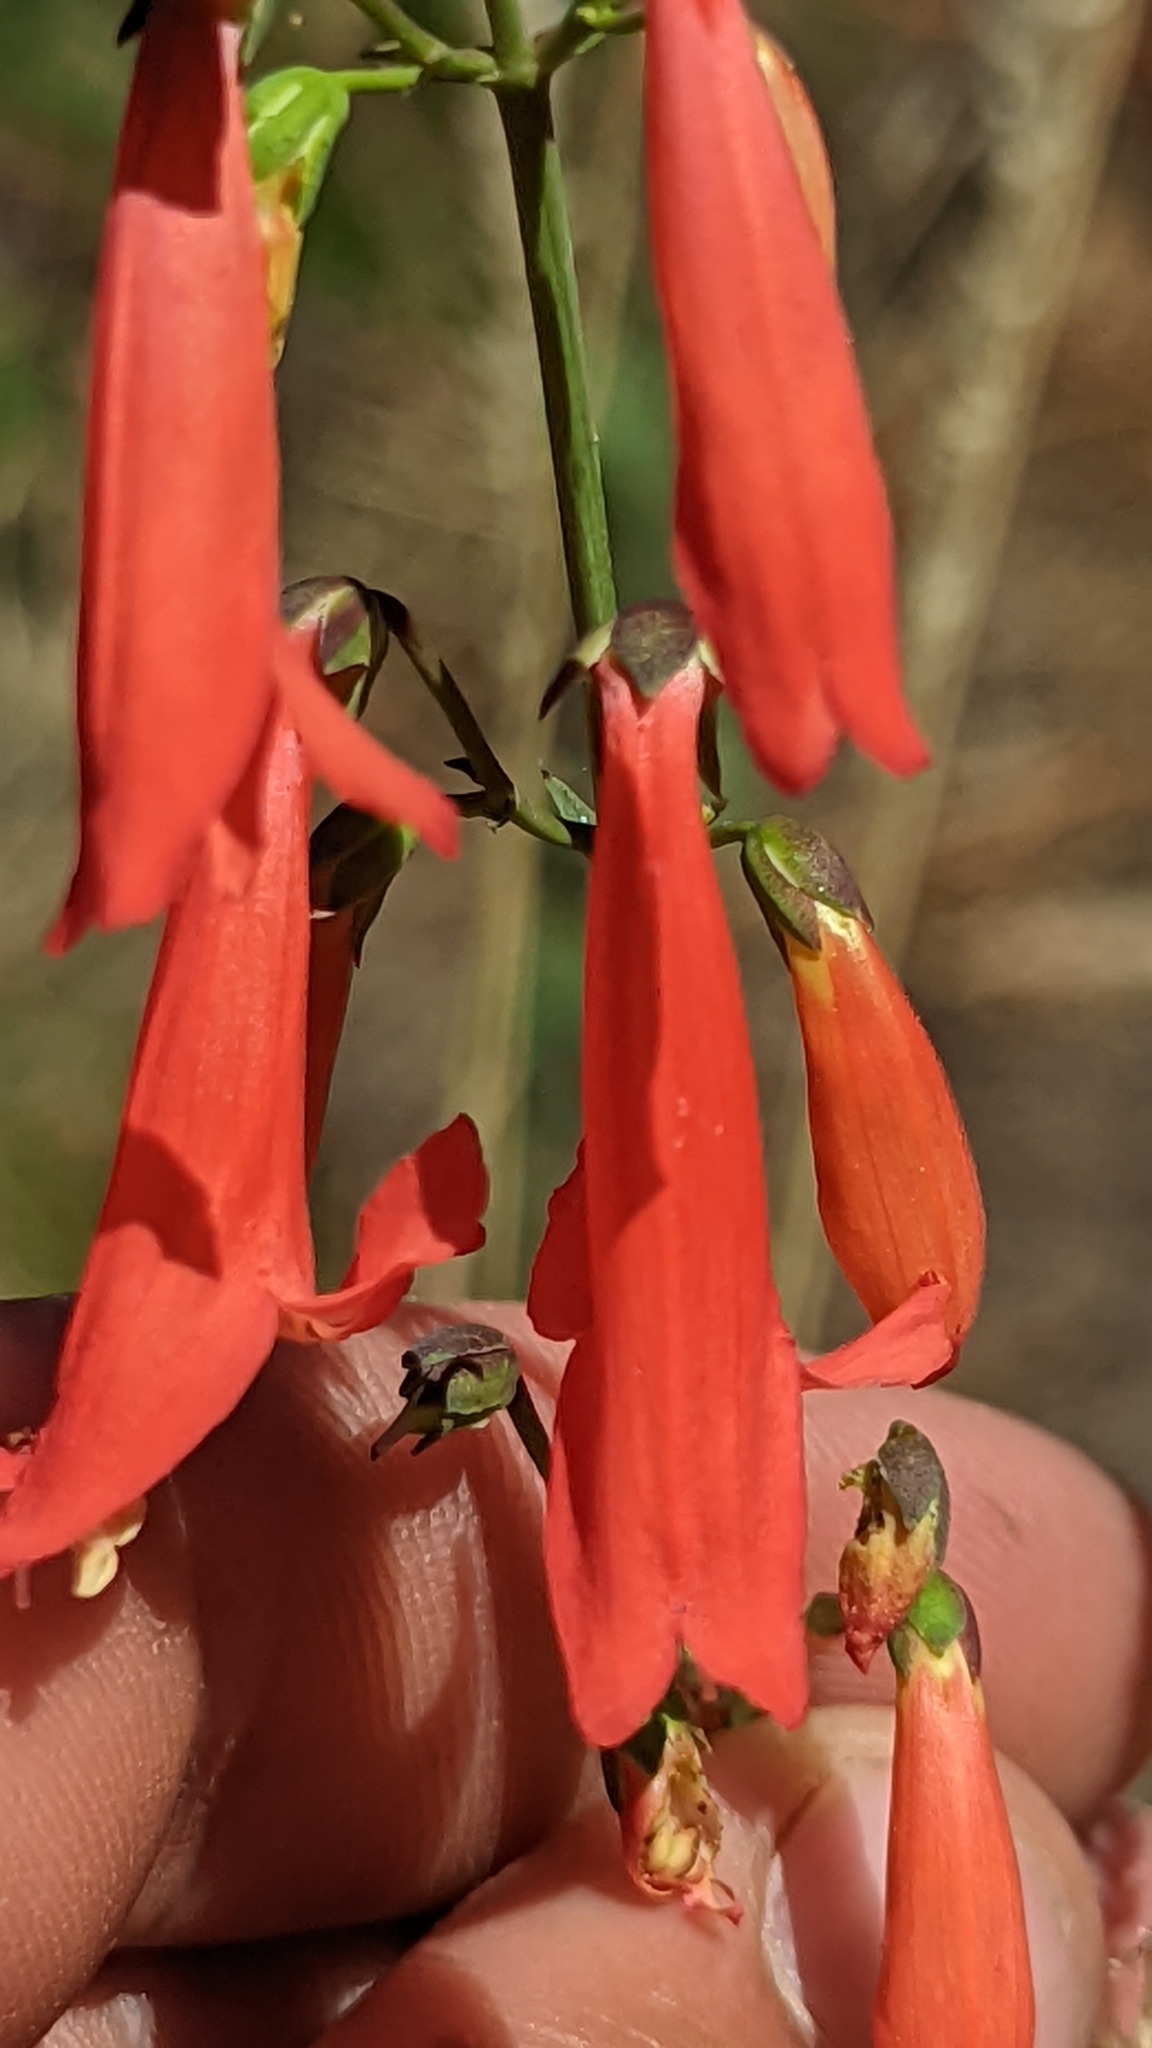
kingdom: Plantae
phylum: Tracheophyta
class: Magnoliopsida
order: Lamiales
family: Plantaginaceae
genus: Penstemon
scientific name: Penstemon barbatus
